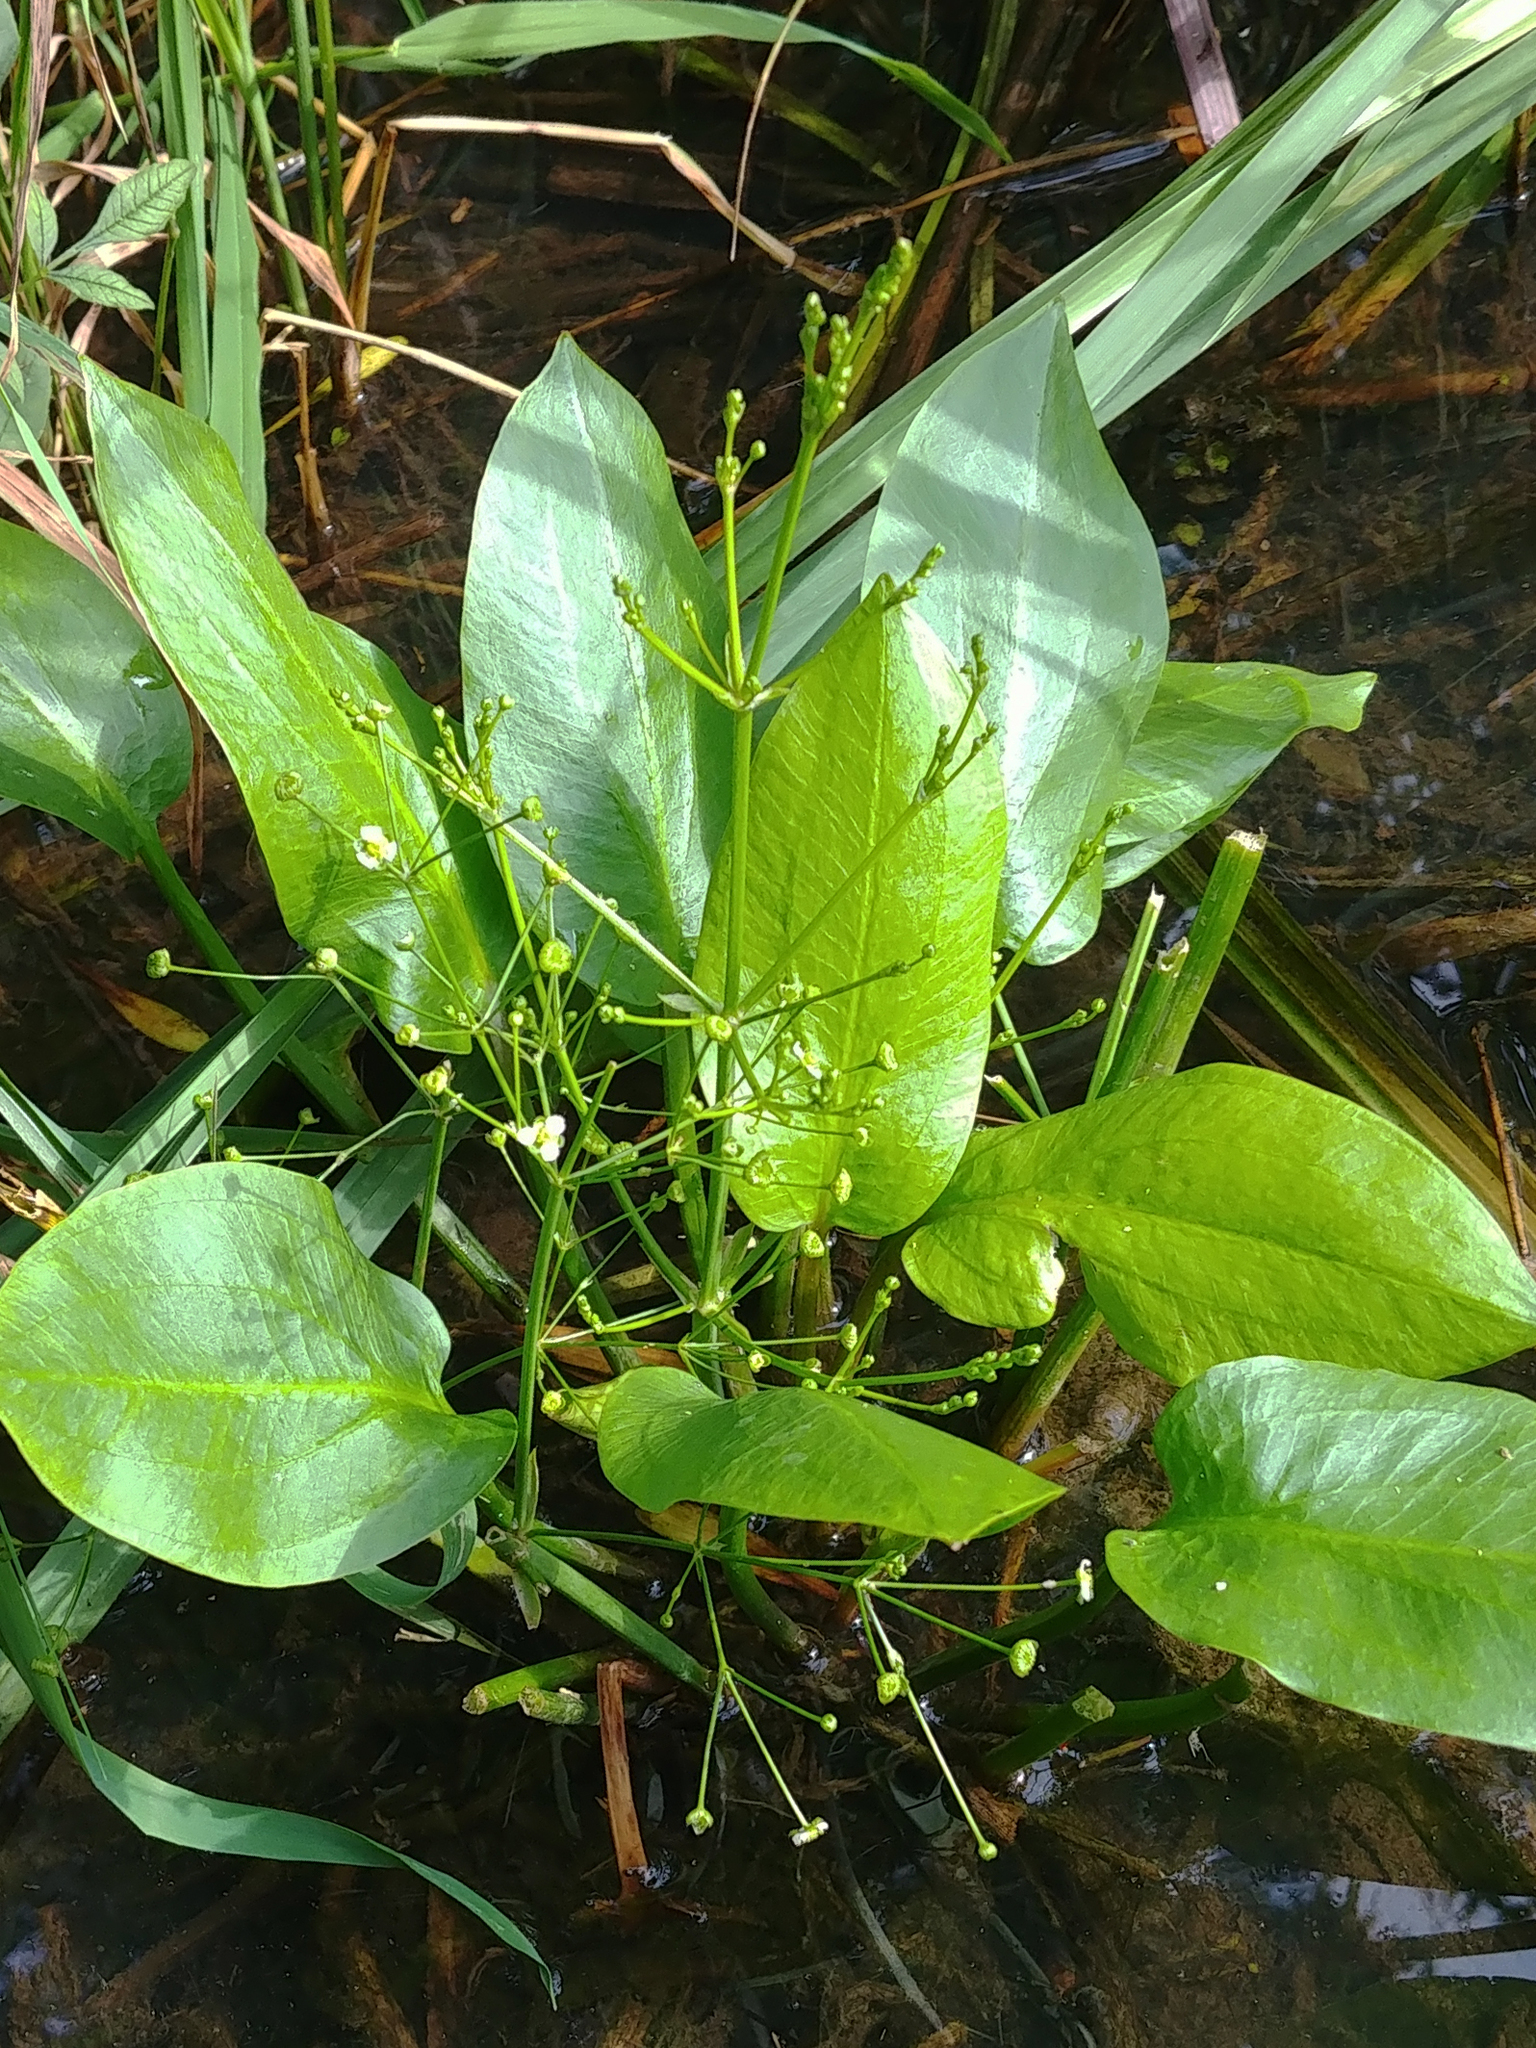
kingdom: Plantae
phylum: Tracheophyta
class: Liliopsida
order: Alismatales
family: Alismataceae
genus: Alisma
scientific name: Alisma triviale
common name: Northern water-plantain
